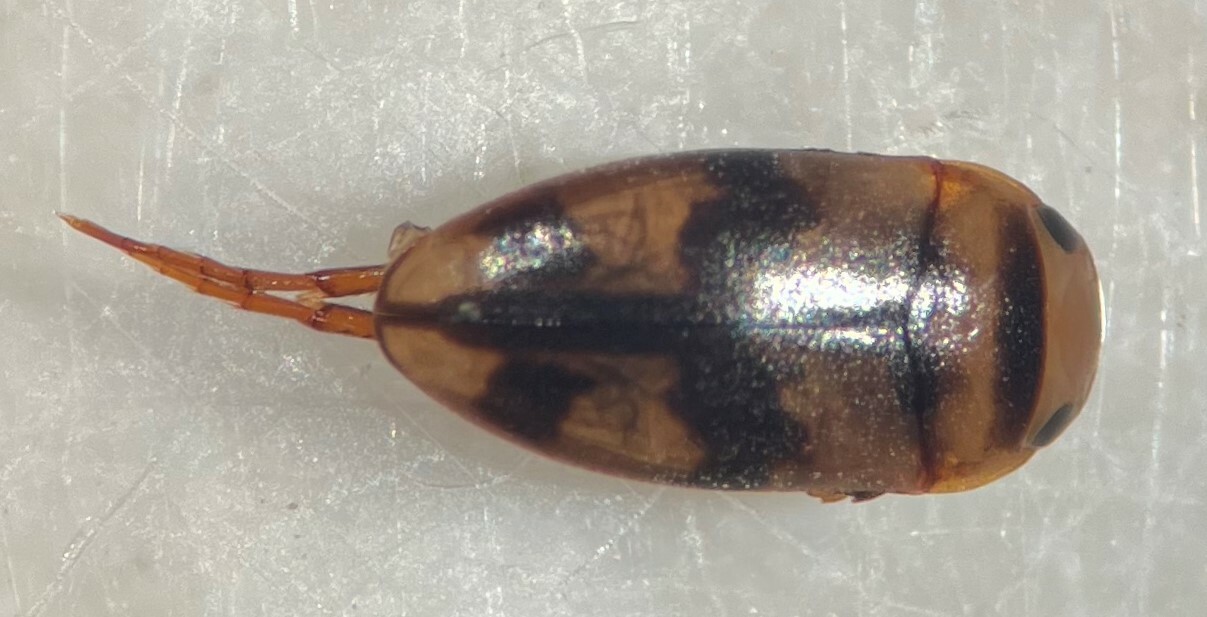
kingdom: Animalia
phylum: Arthropoda
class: Insecta
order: Coleoptera
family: Dytiscidae
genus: Heterosternuta
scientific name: Heterosternuta allegheniana
